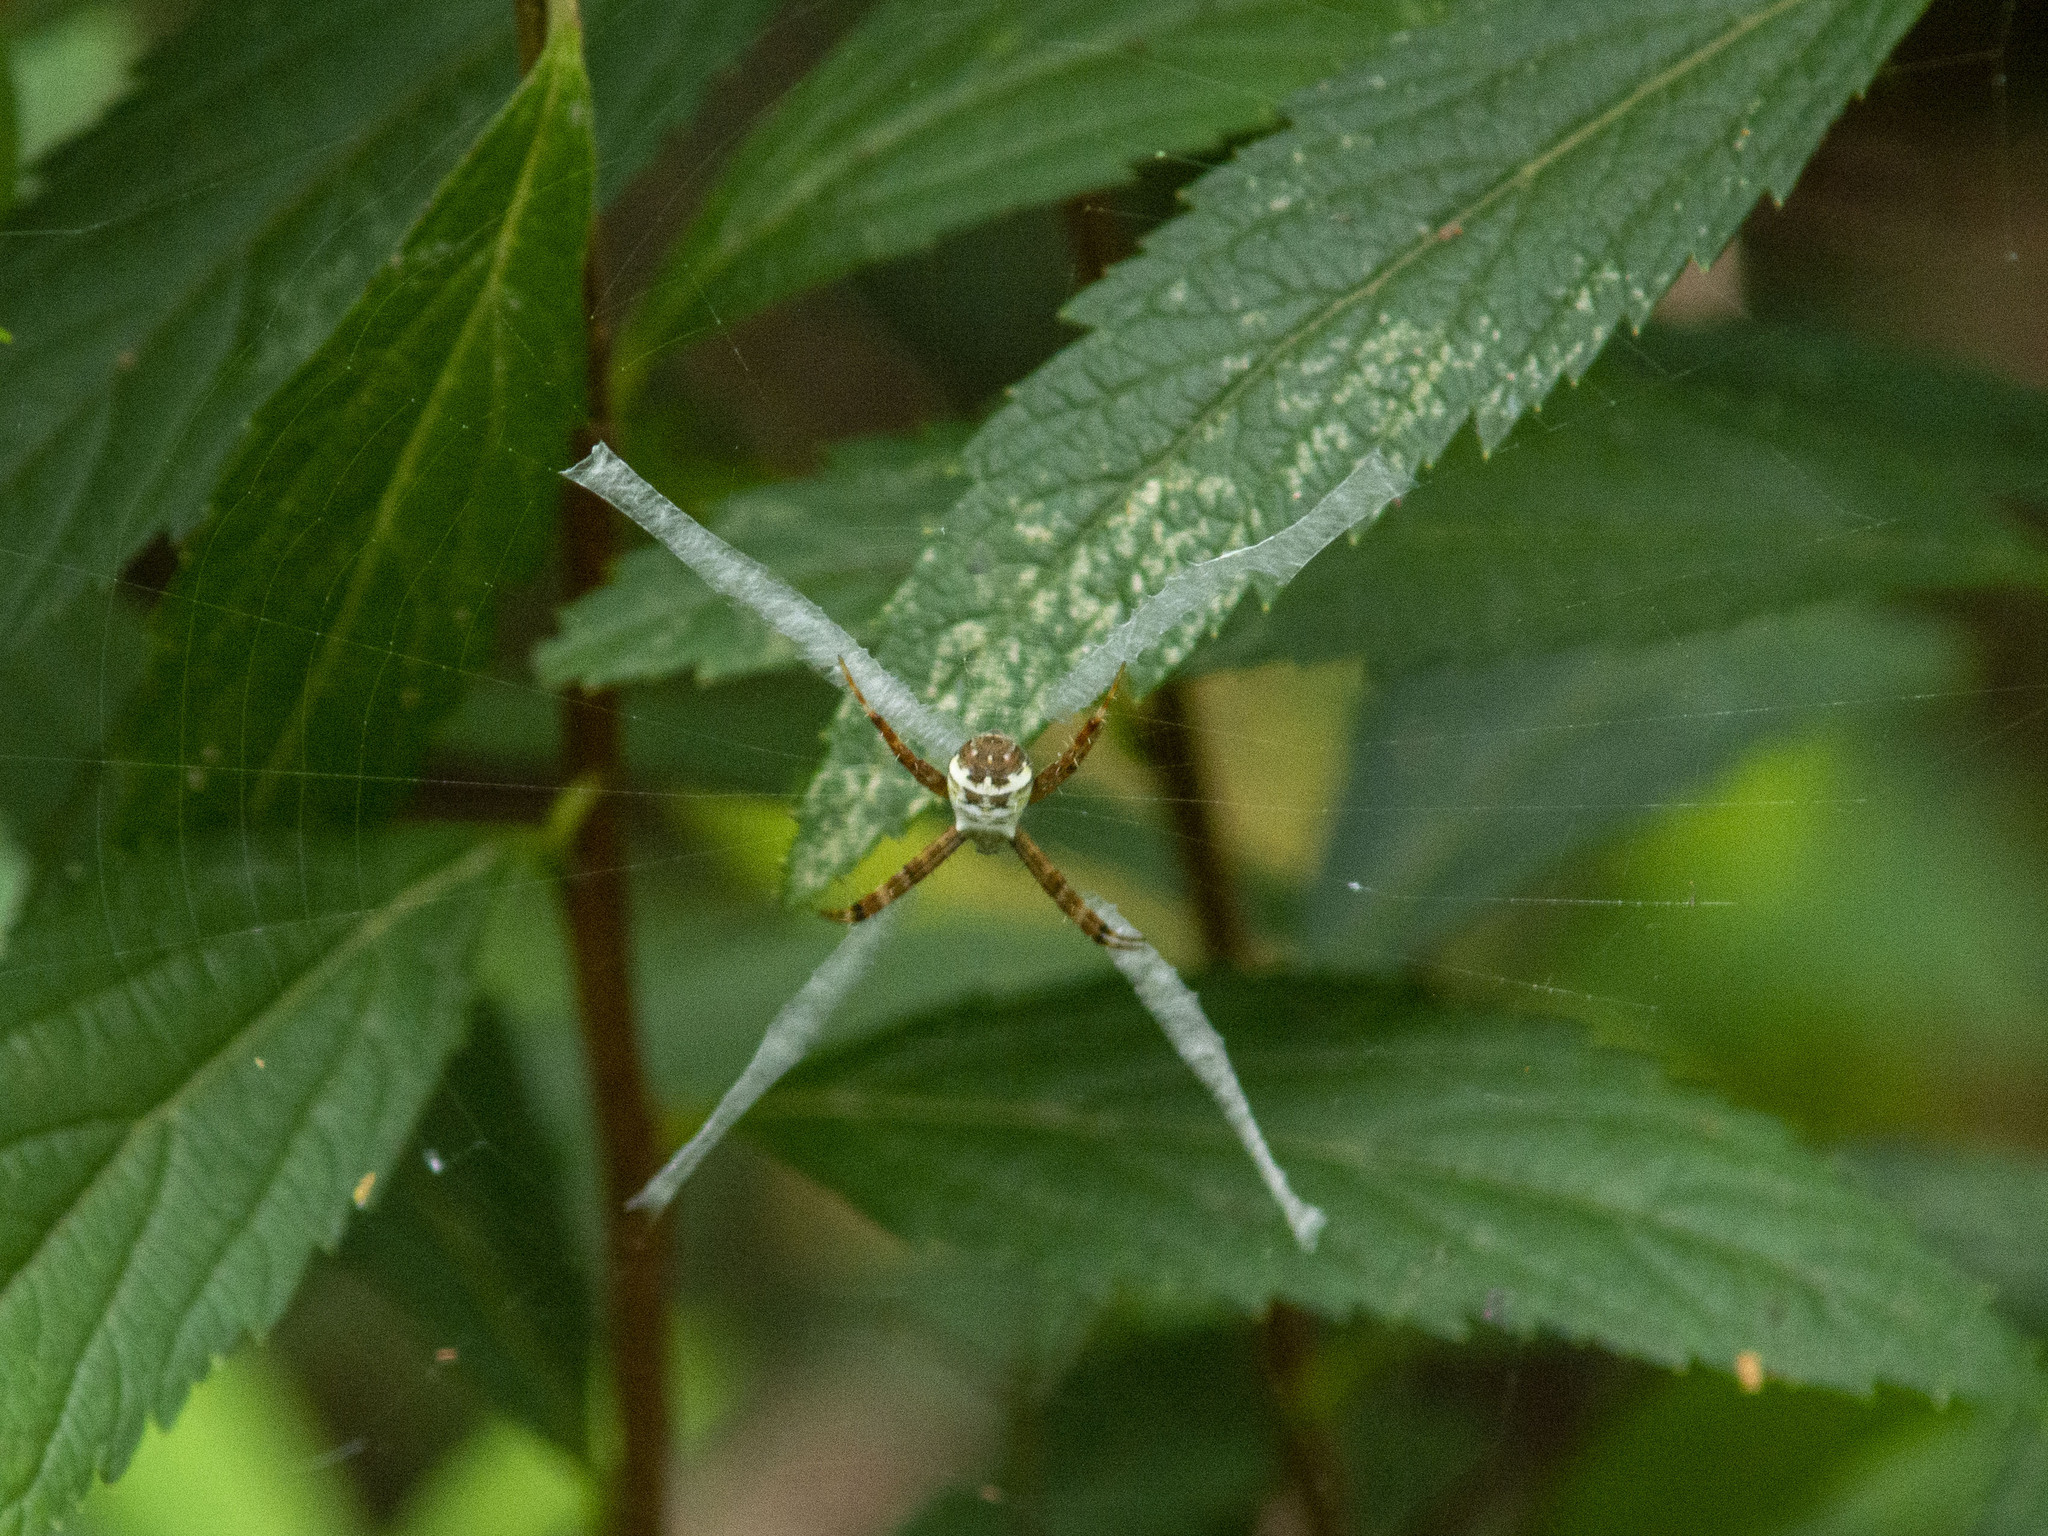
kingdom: Animalia
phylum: Arthropoda
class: Arachnida
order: Araneae
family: Araneidae
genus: Argiope
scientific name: Argiope minuta
